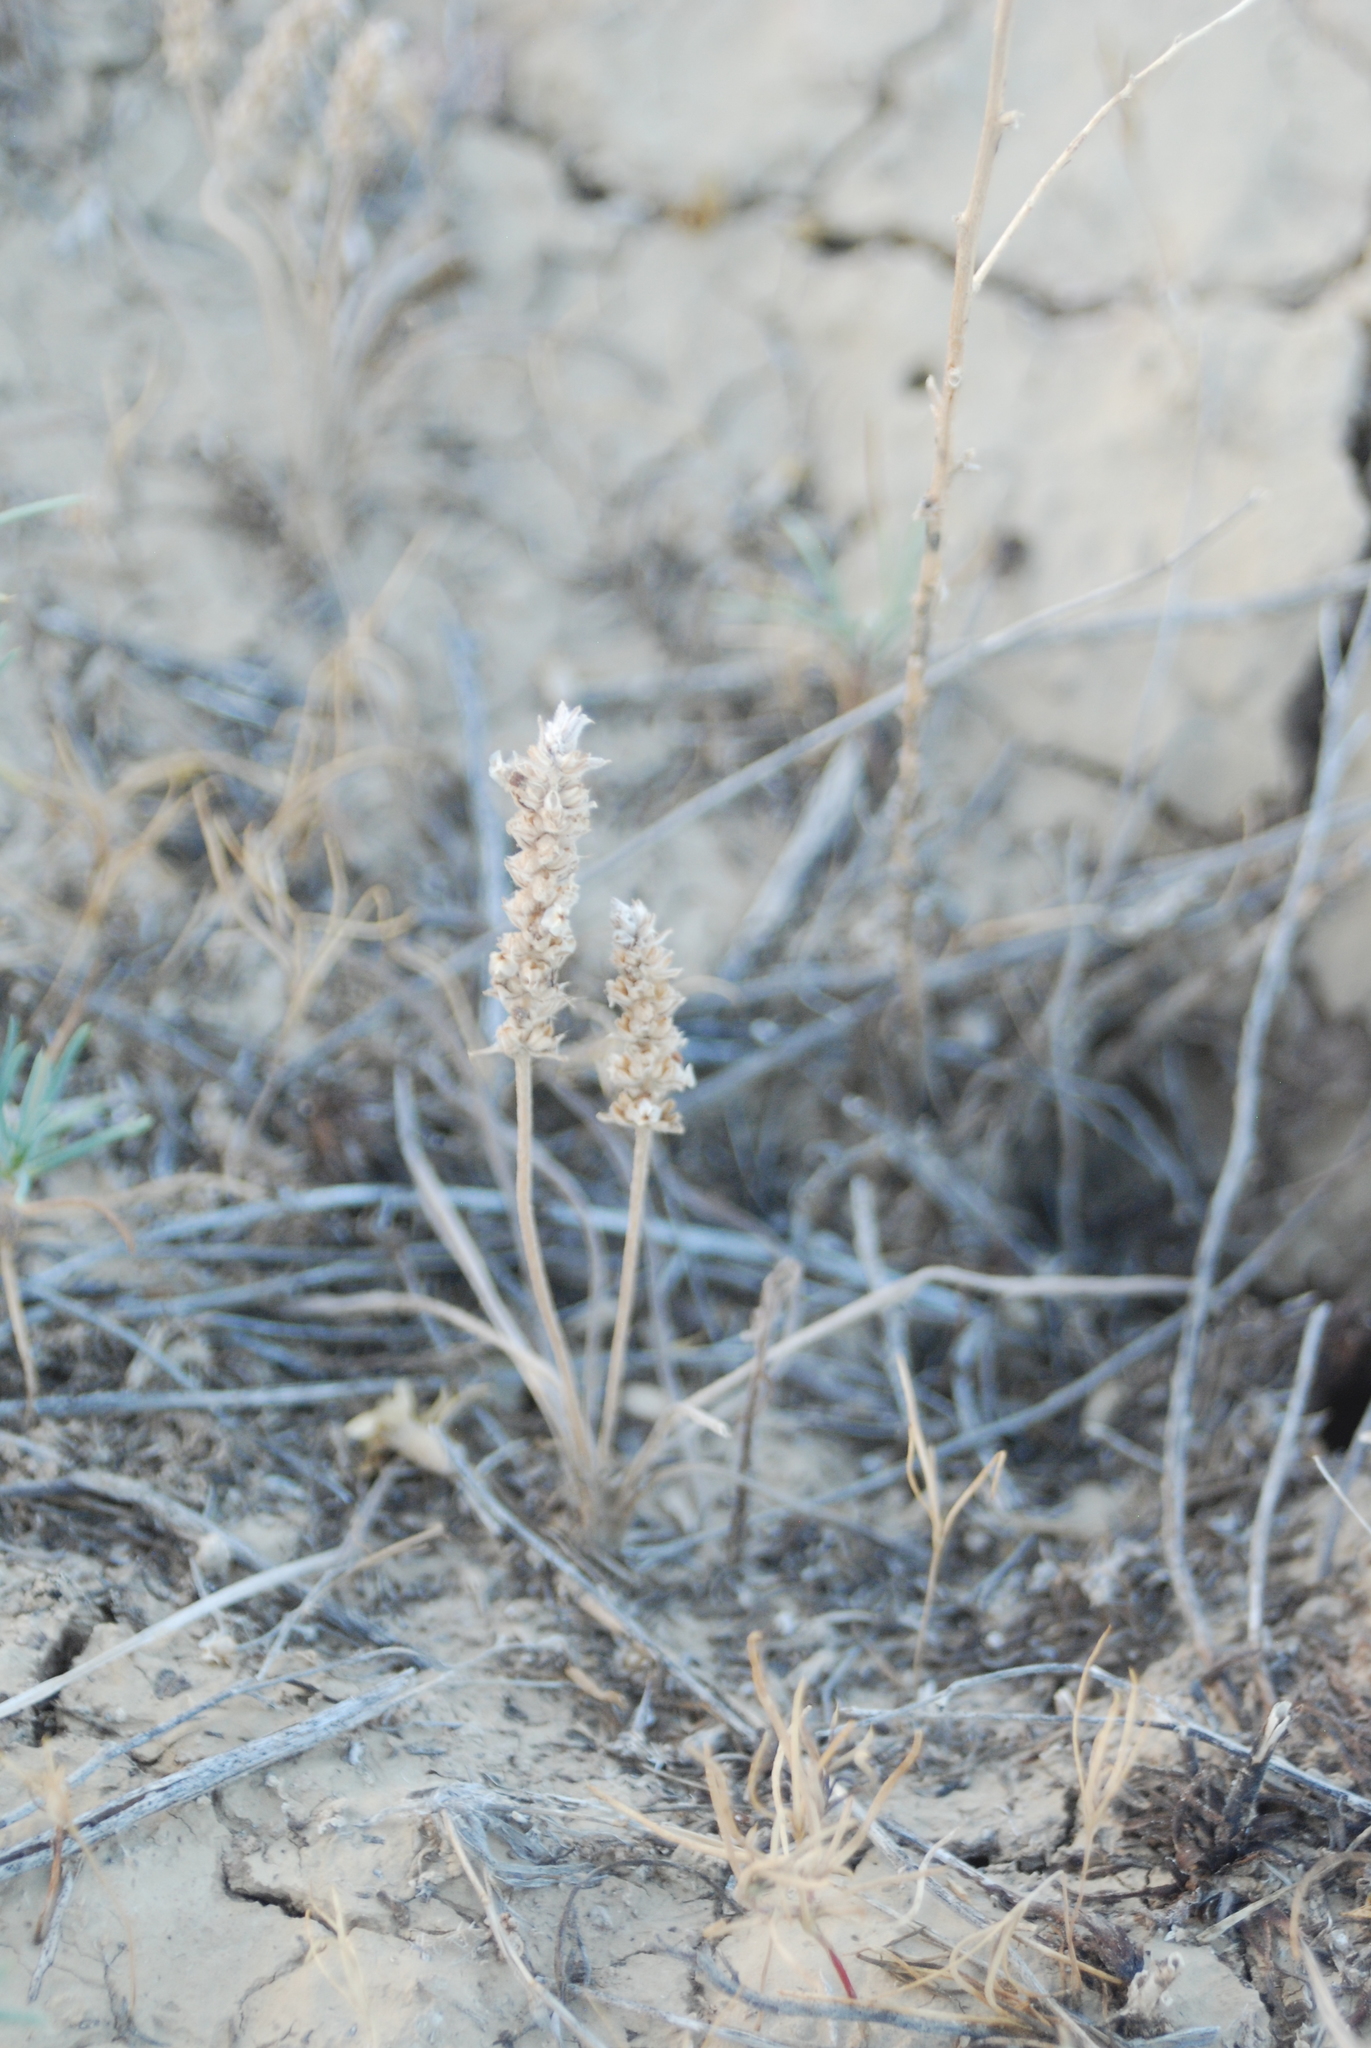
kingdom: Plantae
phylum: Tracheophyta
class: Magnoliopsida
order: Lamiales
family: Plantaginaceae
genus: Plantago
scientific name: Plantago patagonica
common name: Patagonia indian-wheat
